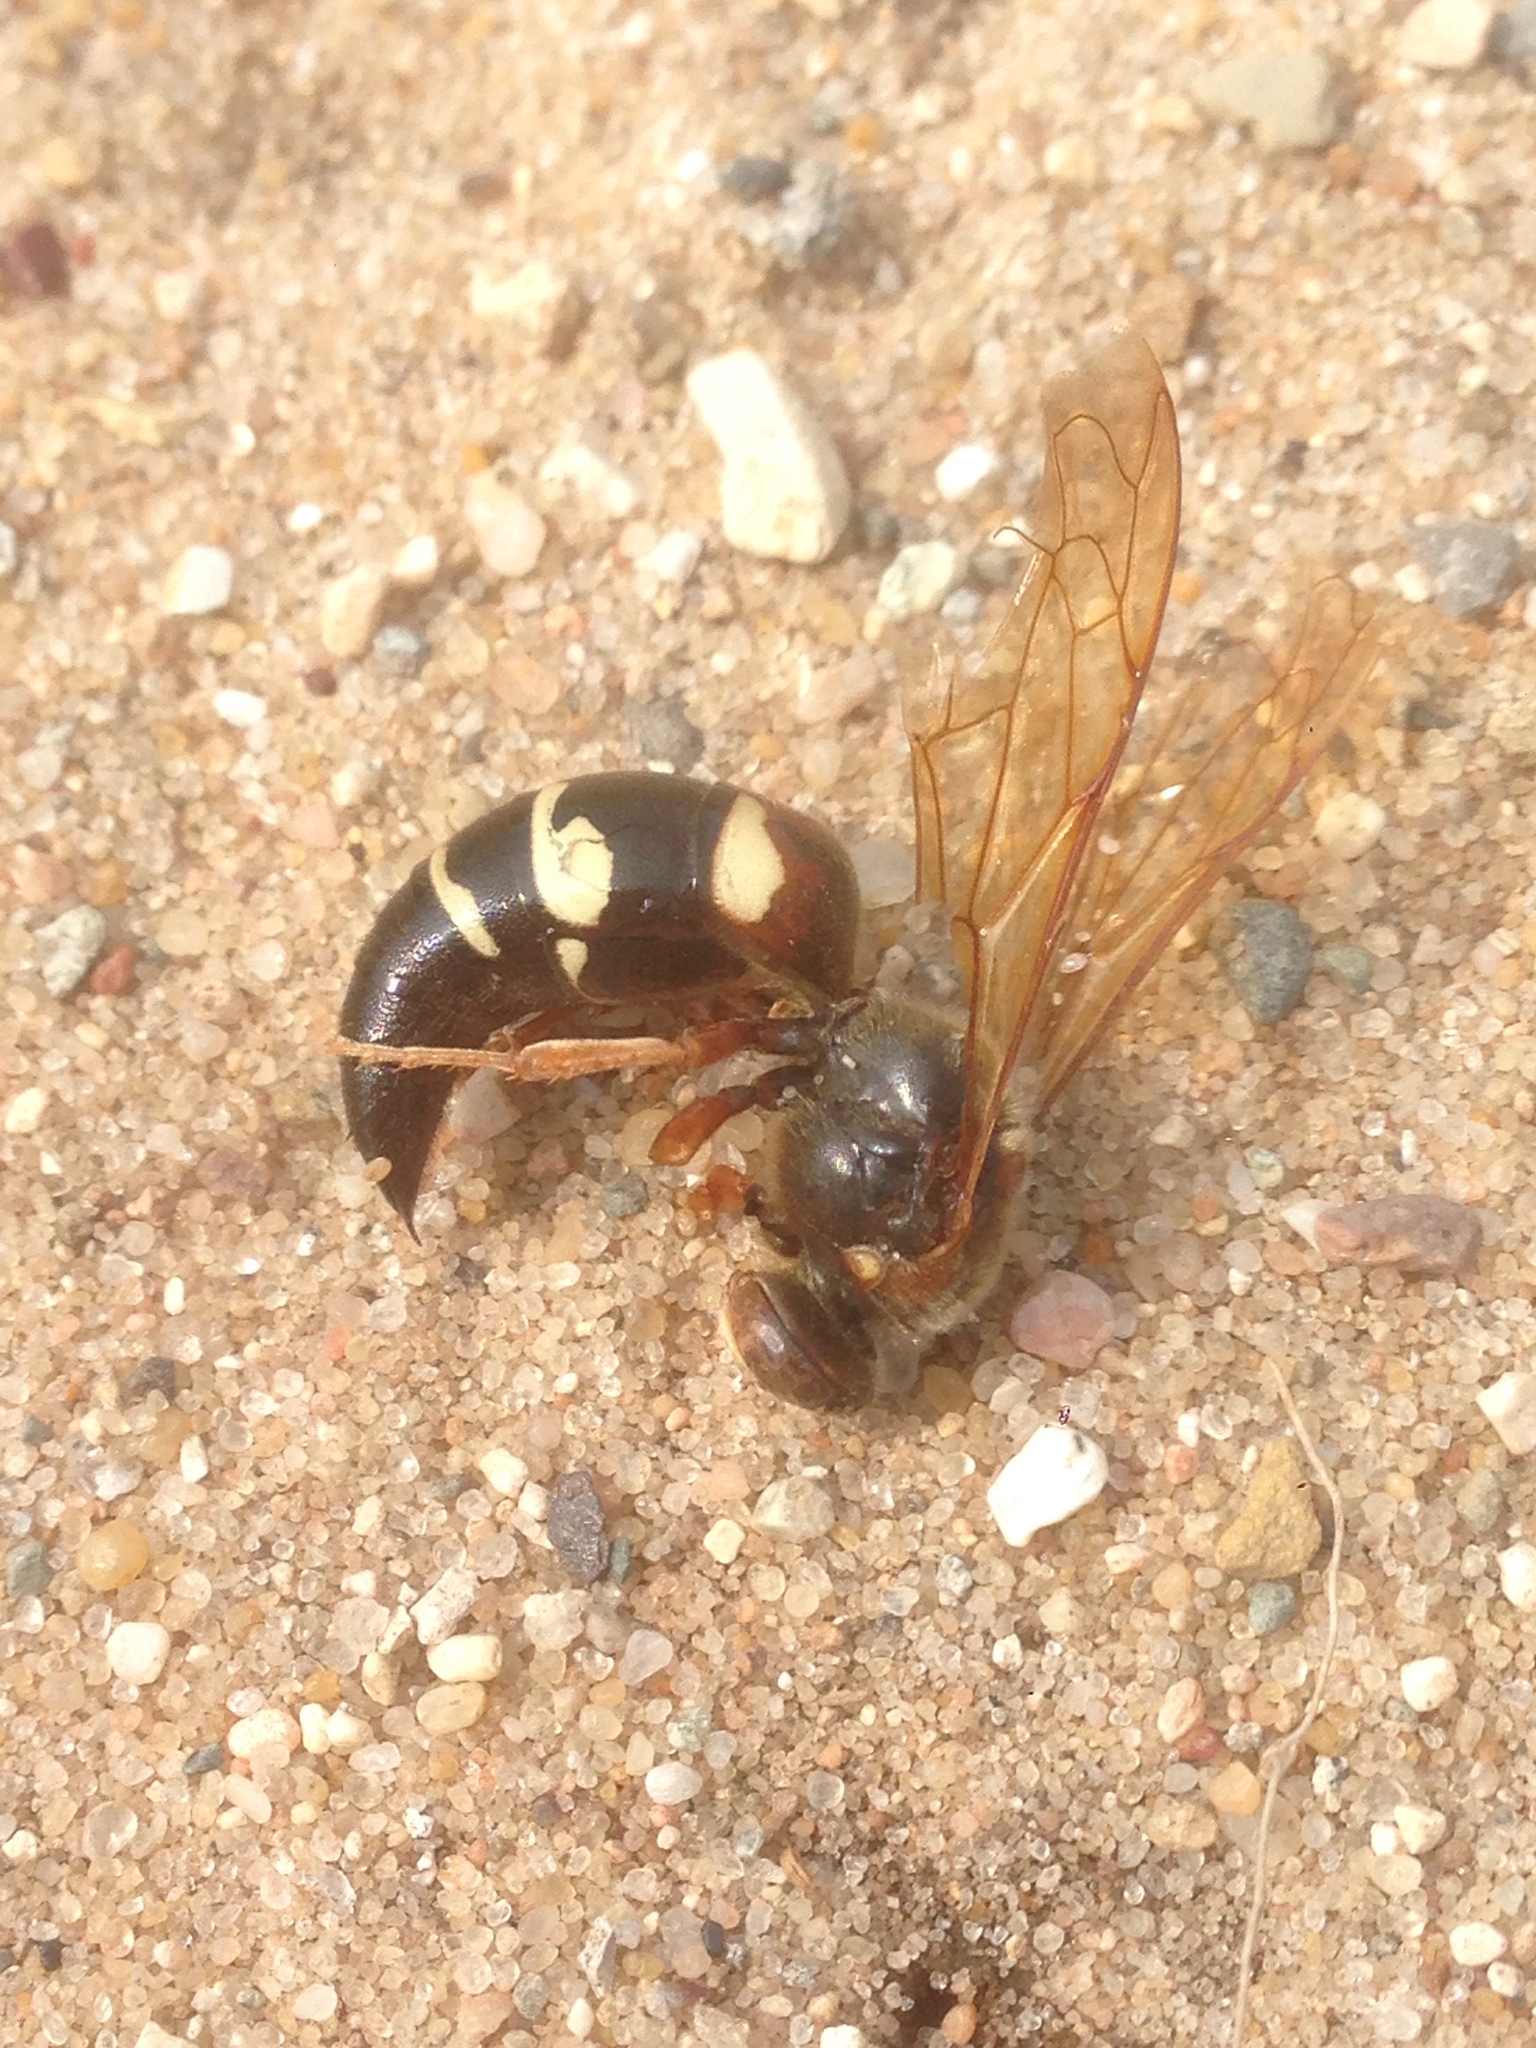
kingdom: Animalia
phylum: Arthropoda
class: Insecta
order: Hymenoptera
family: Crabronidae
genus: Sphecius
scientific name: Sphecius speciosus
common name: Cicada killer
